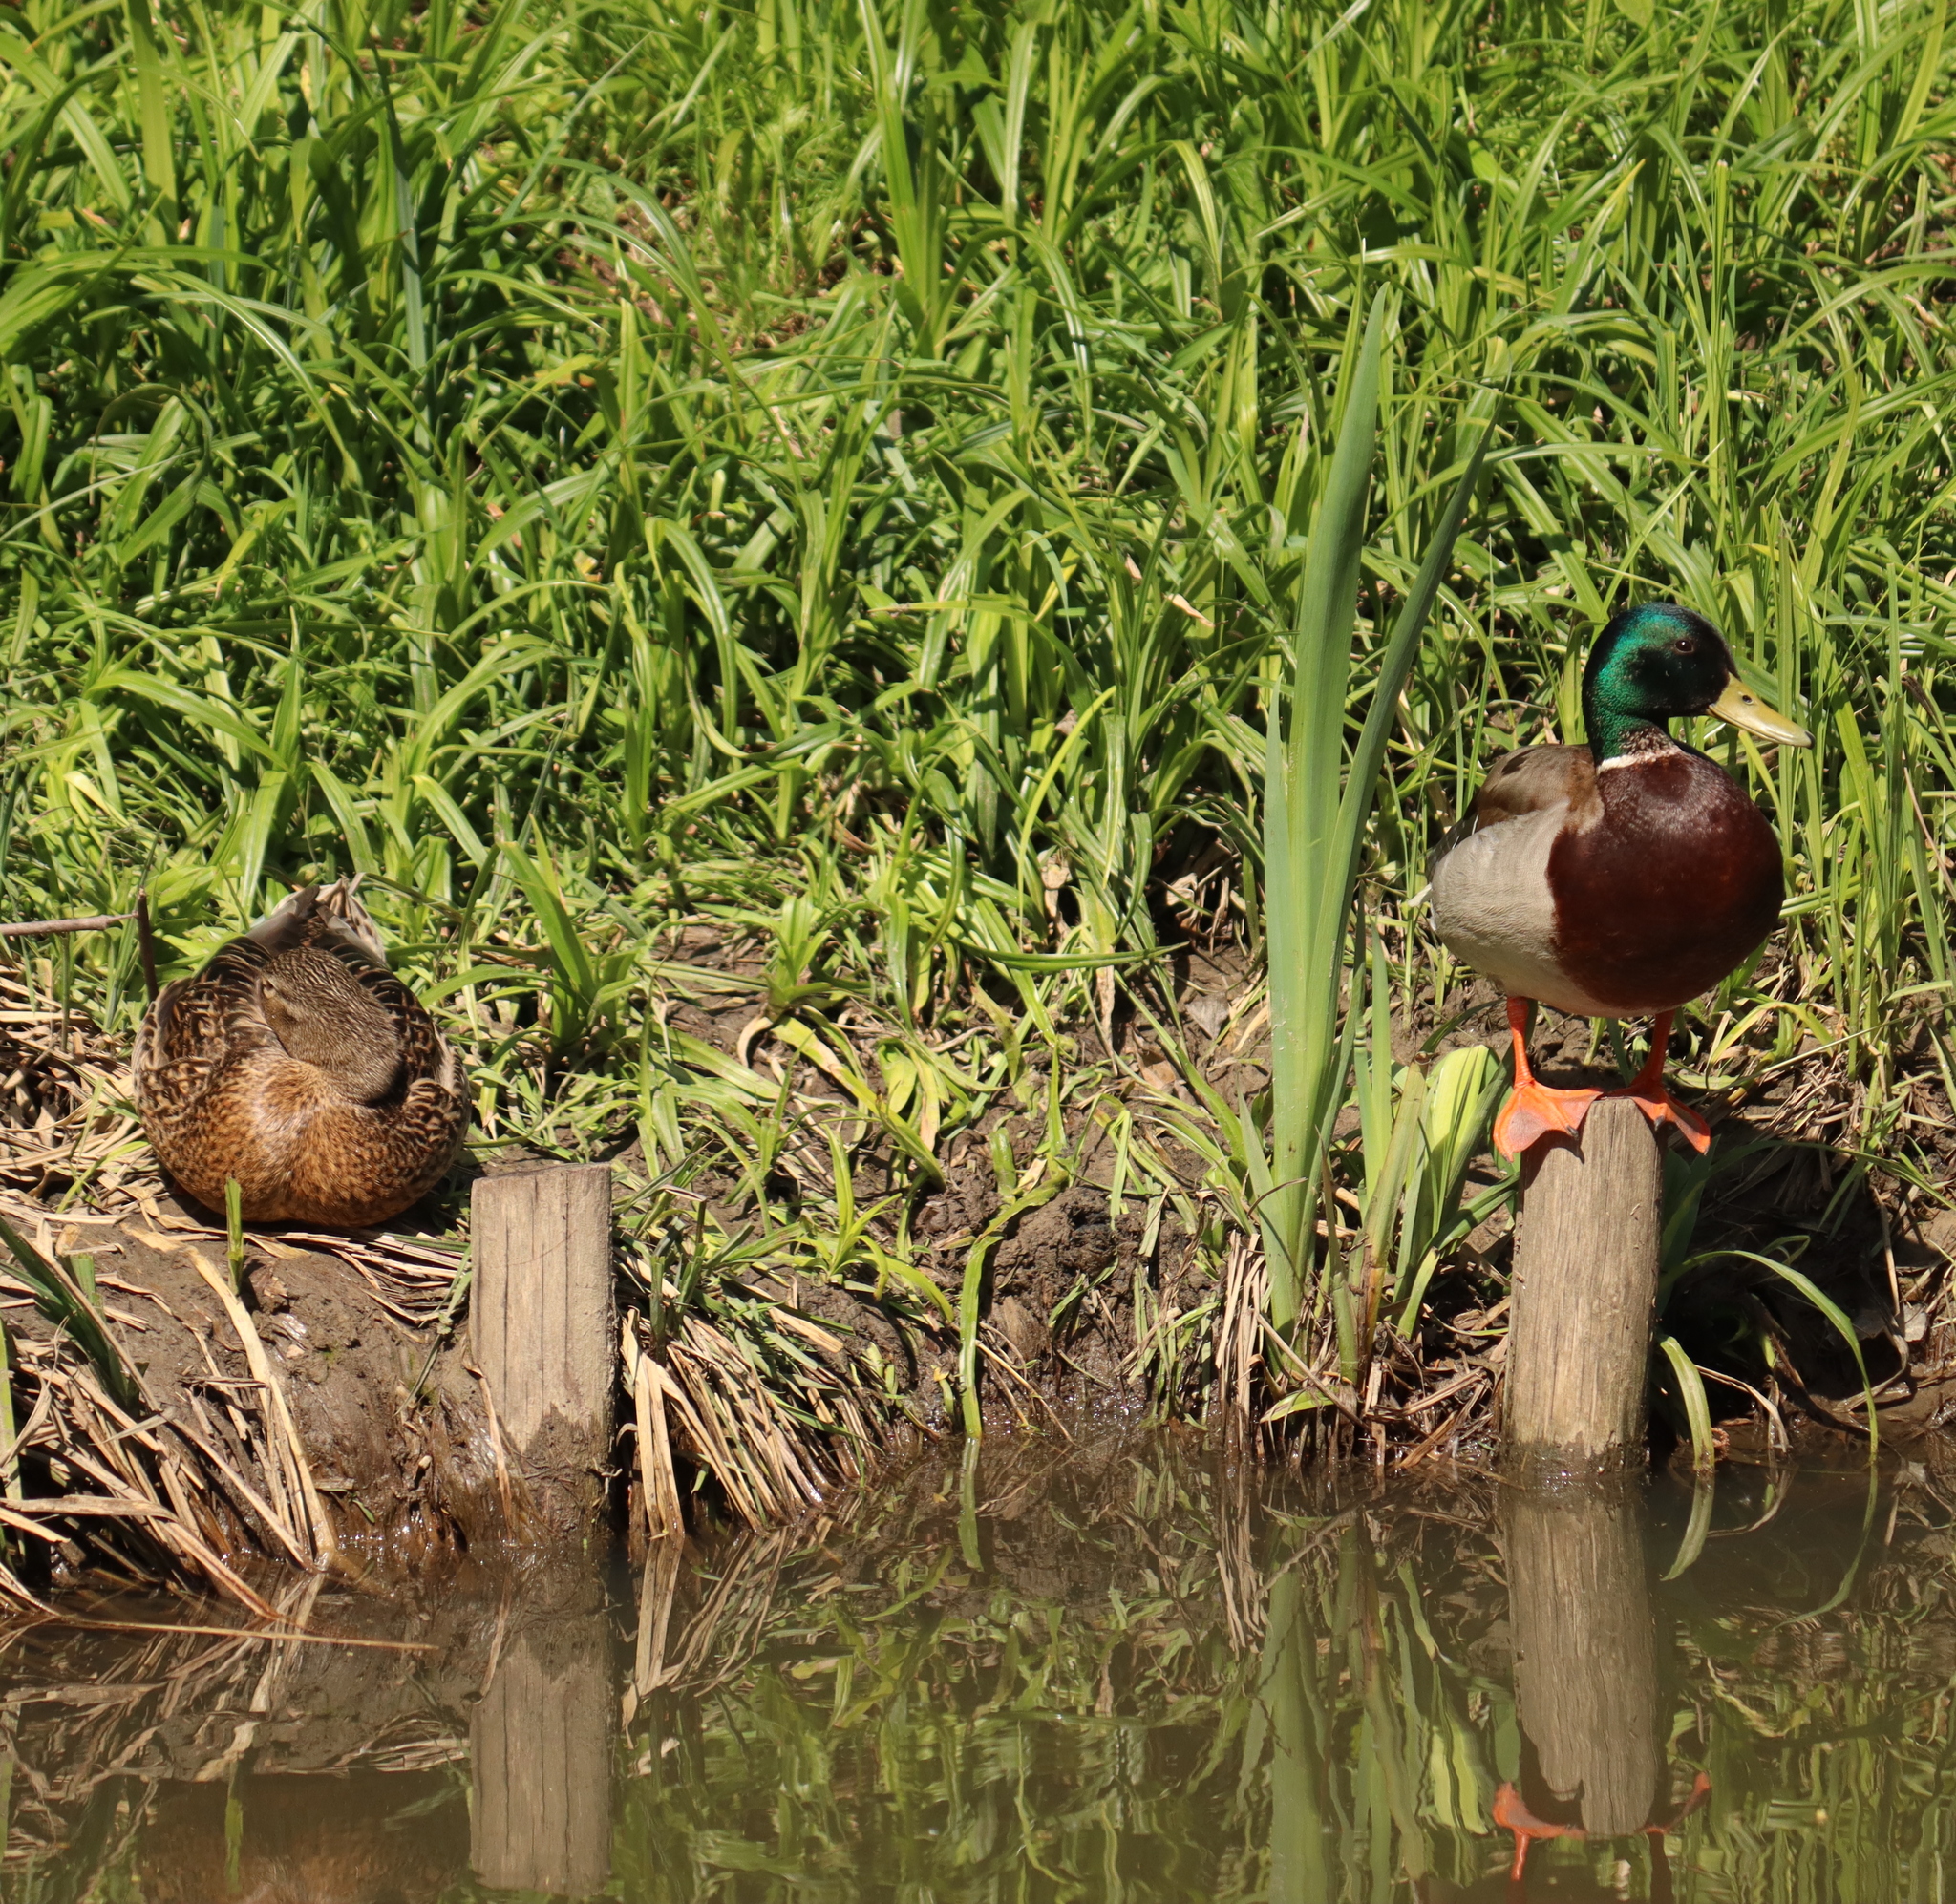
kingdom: Animalia
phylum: Chordata
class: Aves
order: Anseriformes
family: Anatidae
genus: Anas
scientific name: Anas platyrhynchos
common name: Mallard
